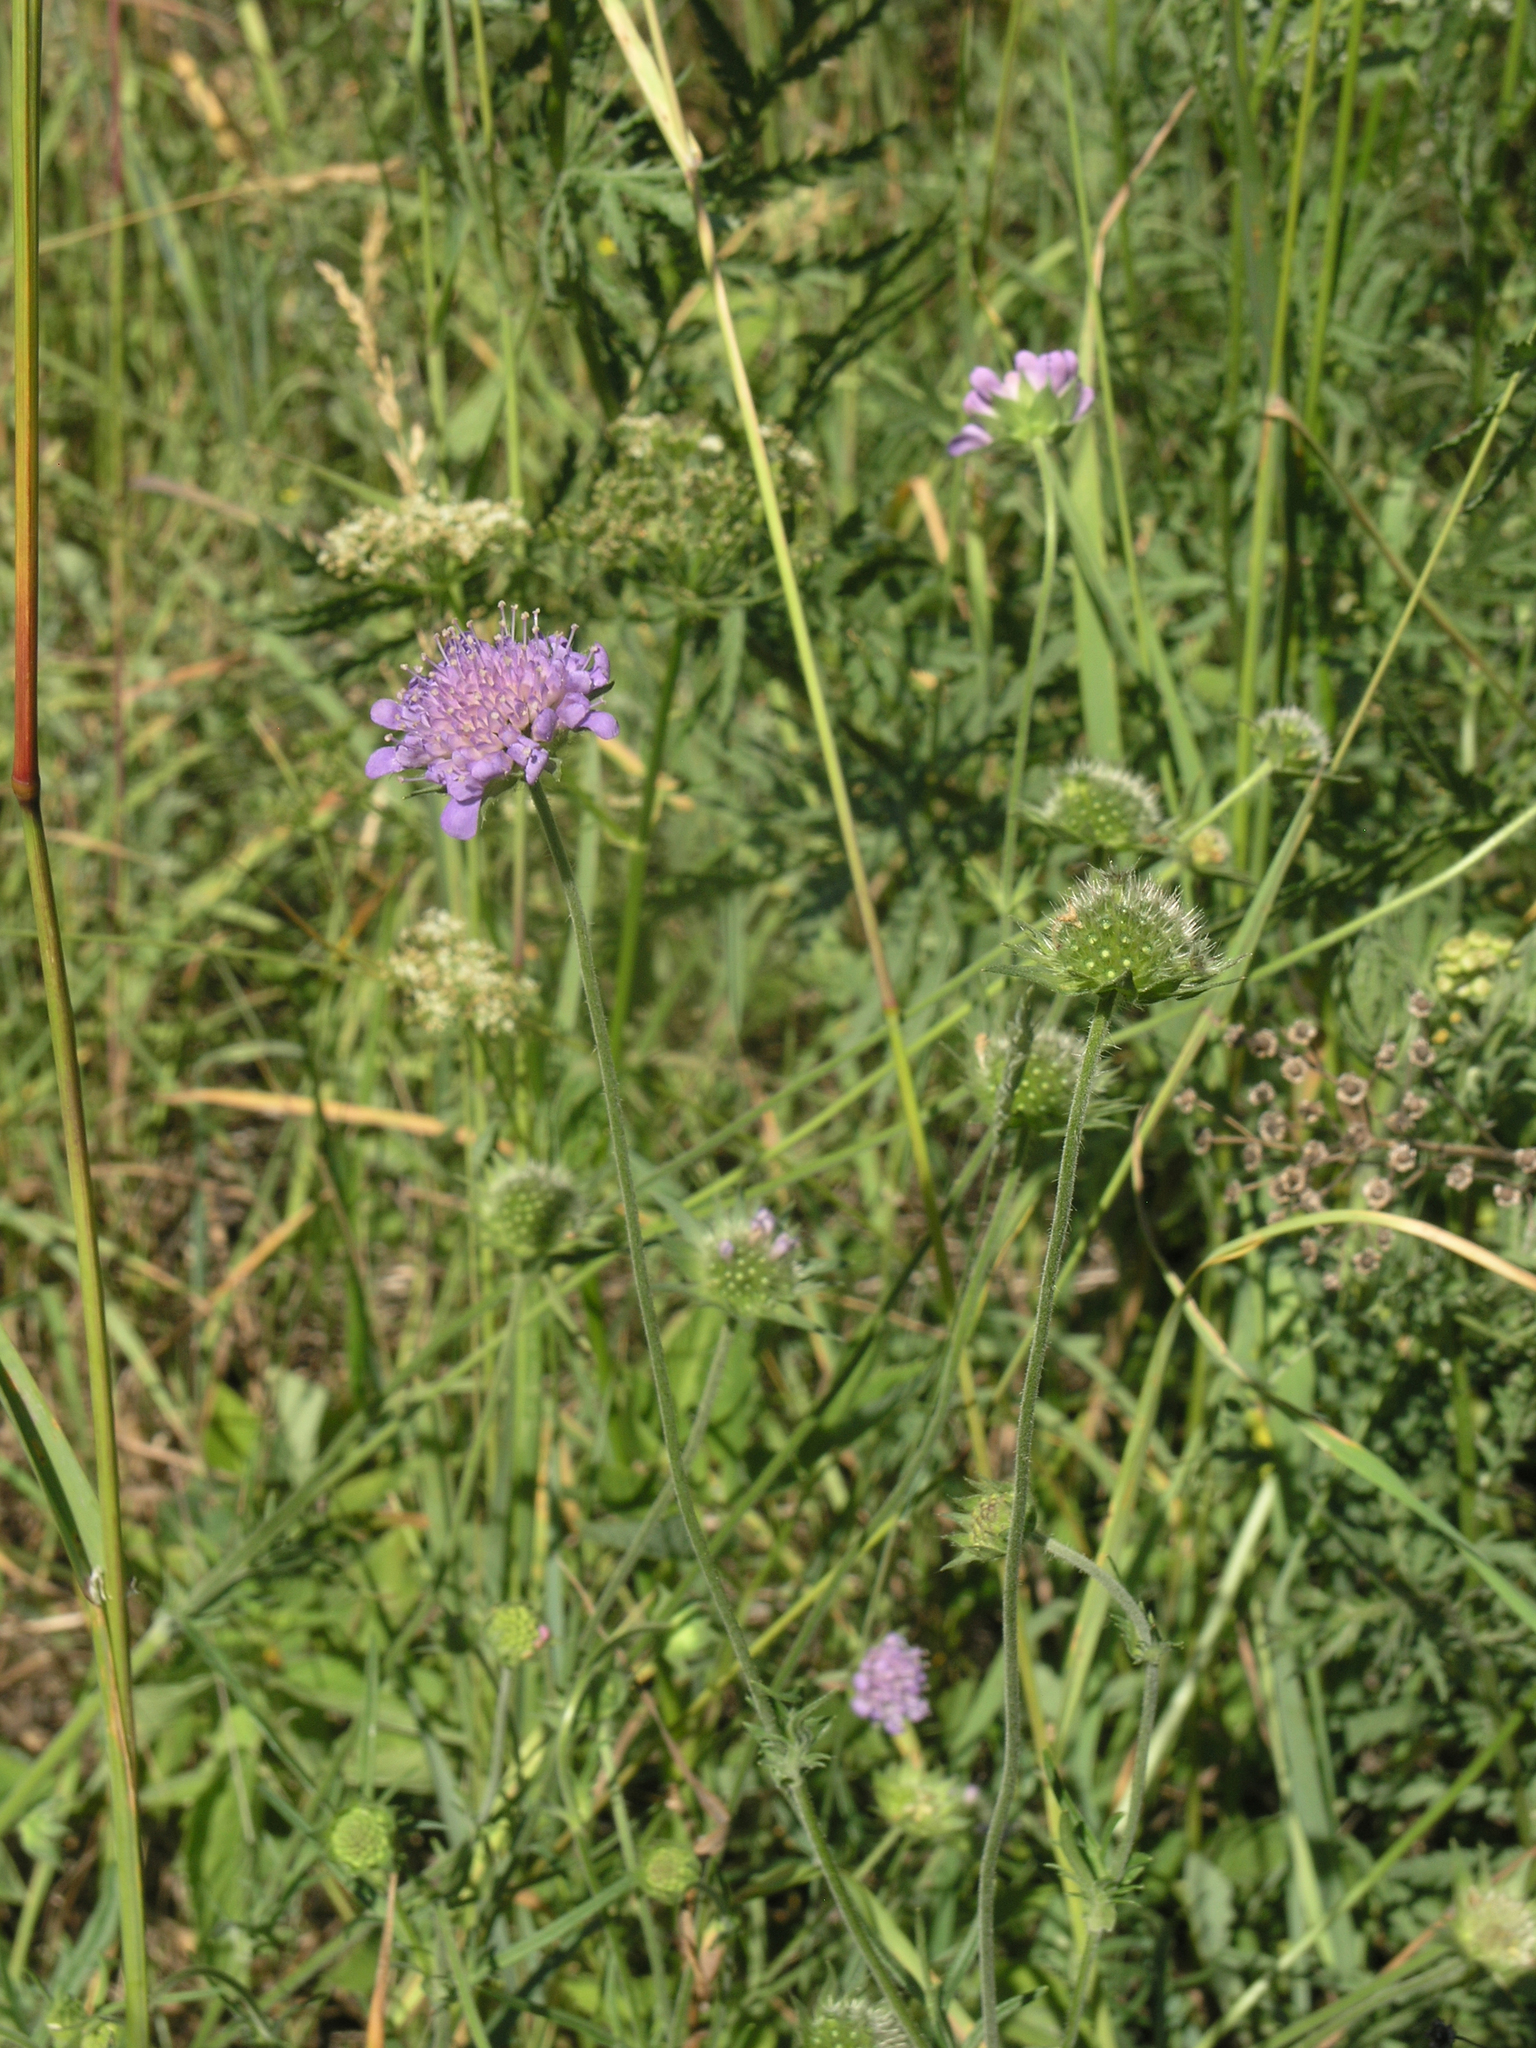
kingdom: Plantae
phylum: Tracheophyta
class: Magnoliopsida
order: Dipsacales
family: Caprifoliaceae
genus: Knautia
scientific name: Knautia arvensis
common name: Field scabiosa
